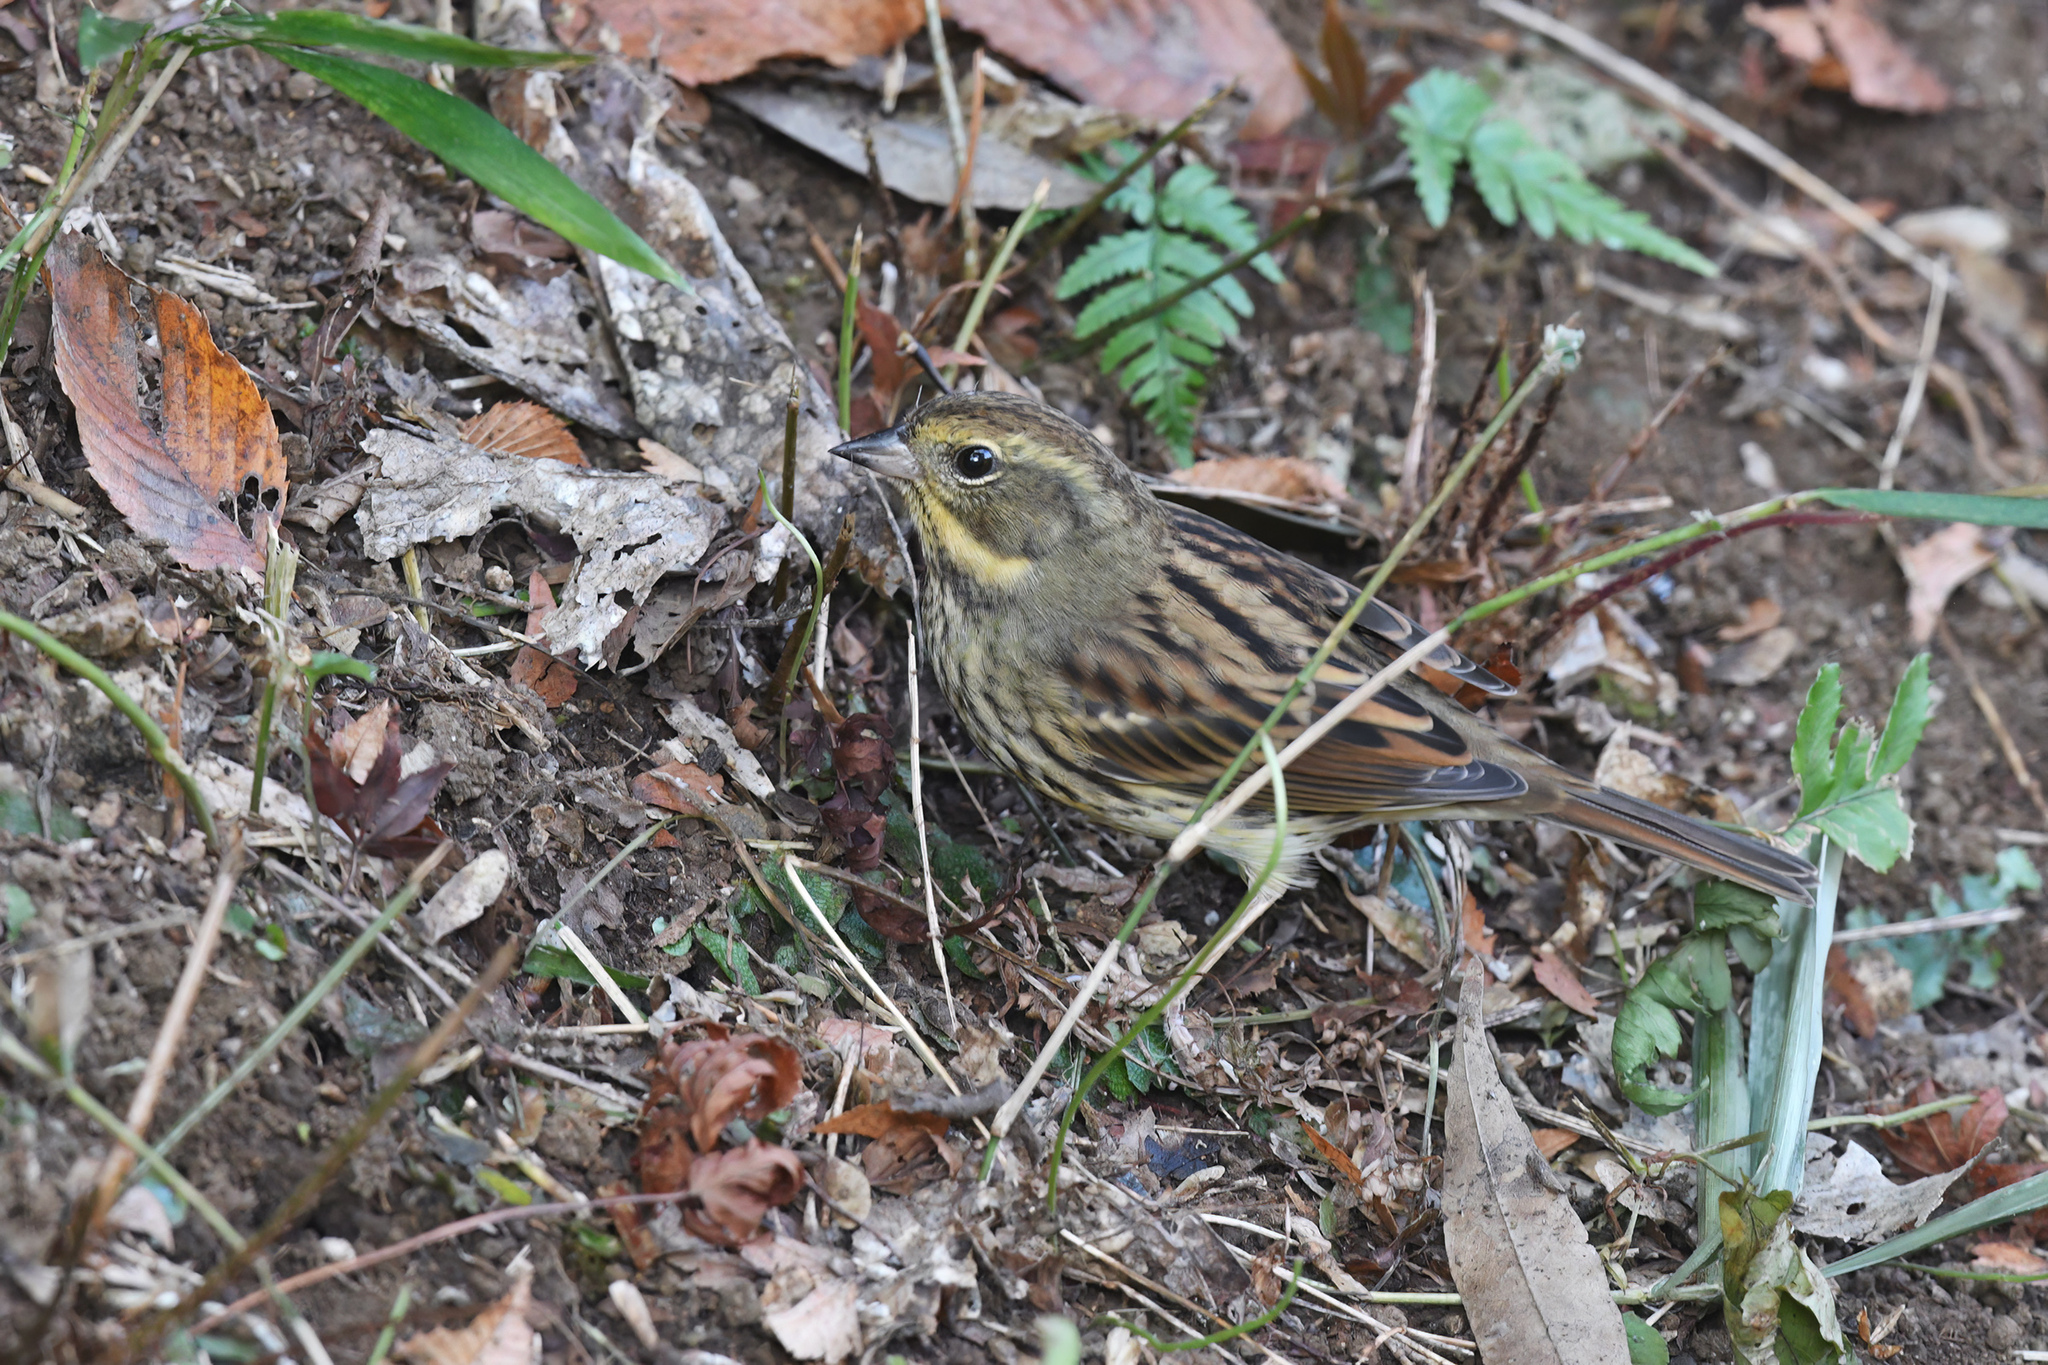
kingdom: Animalia
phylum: Chordata
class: Aves
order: Passeriformes
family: Emberizidae
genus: Emberiza
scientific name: Emberiza personata
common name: Masked bunting
